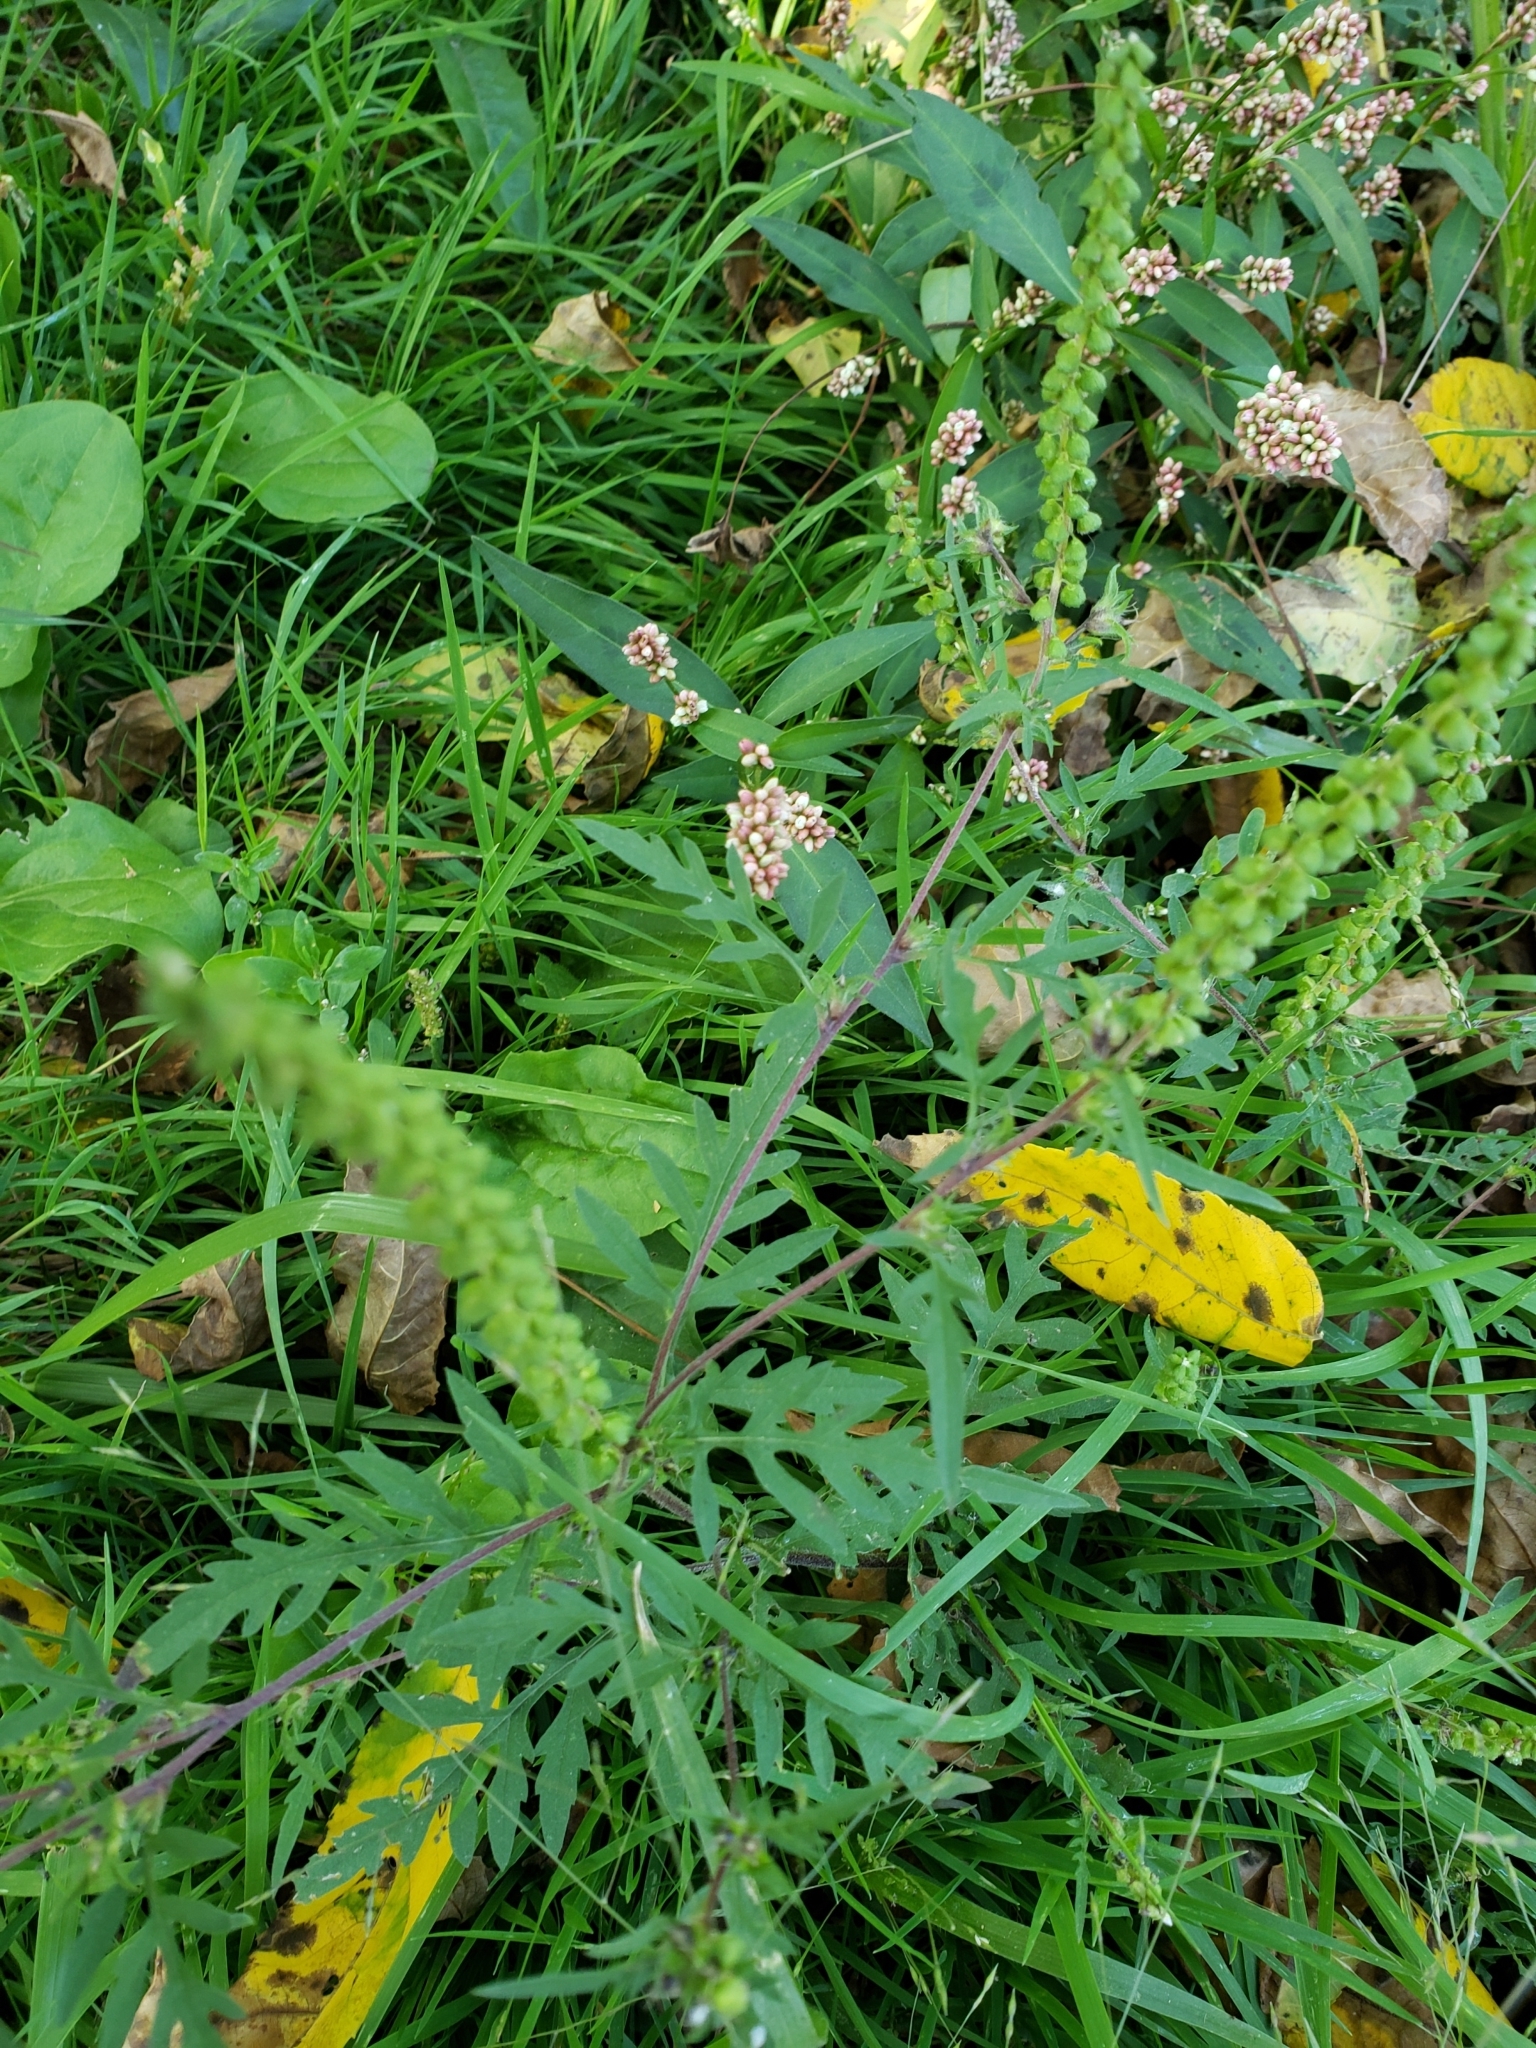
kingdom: Plantae
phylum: Tracheophyta
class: Magnoliopsida
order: Asterales
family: Asteraceae
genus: Ambrosia
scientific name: Ambrosia artemisiifolia
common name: Annual ragweed
